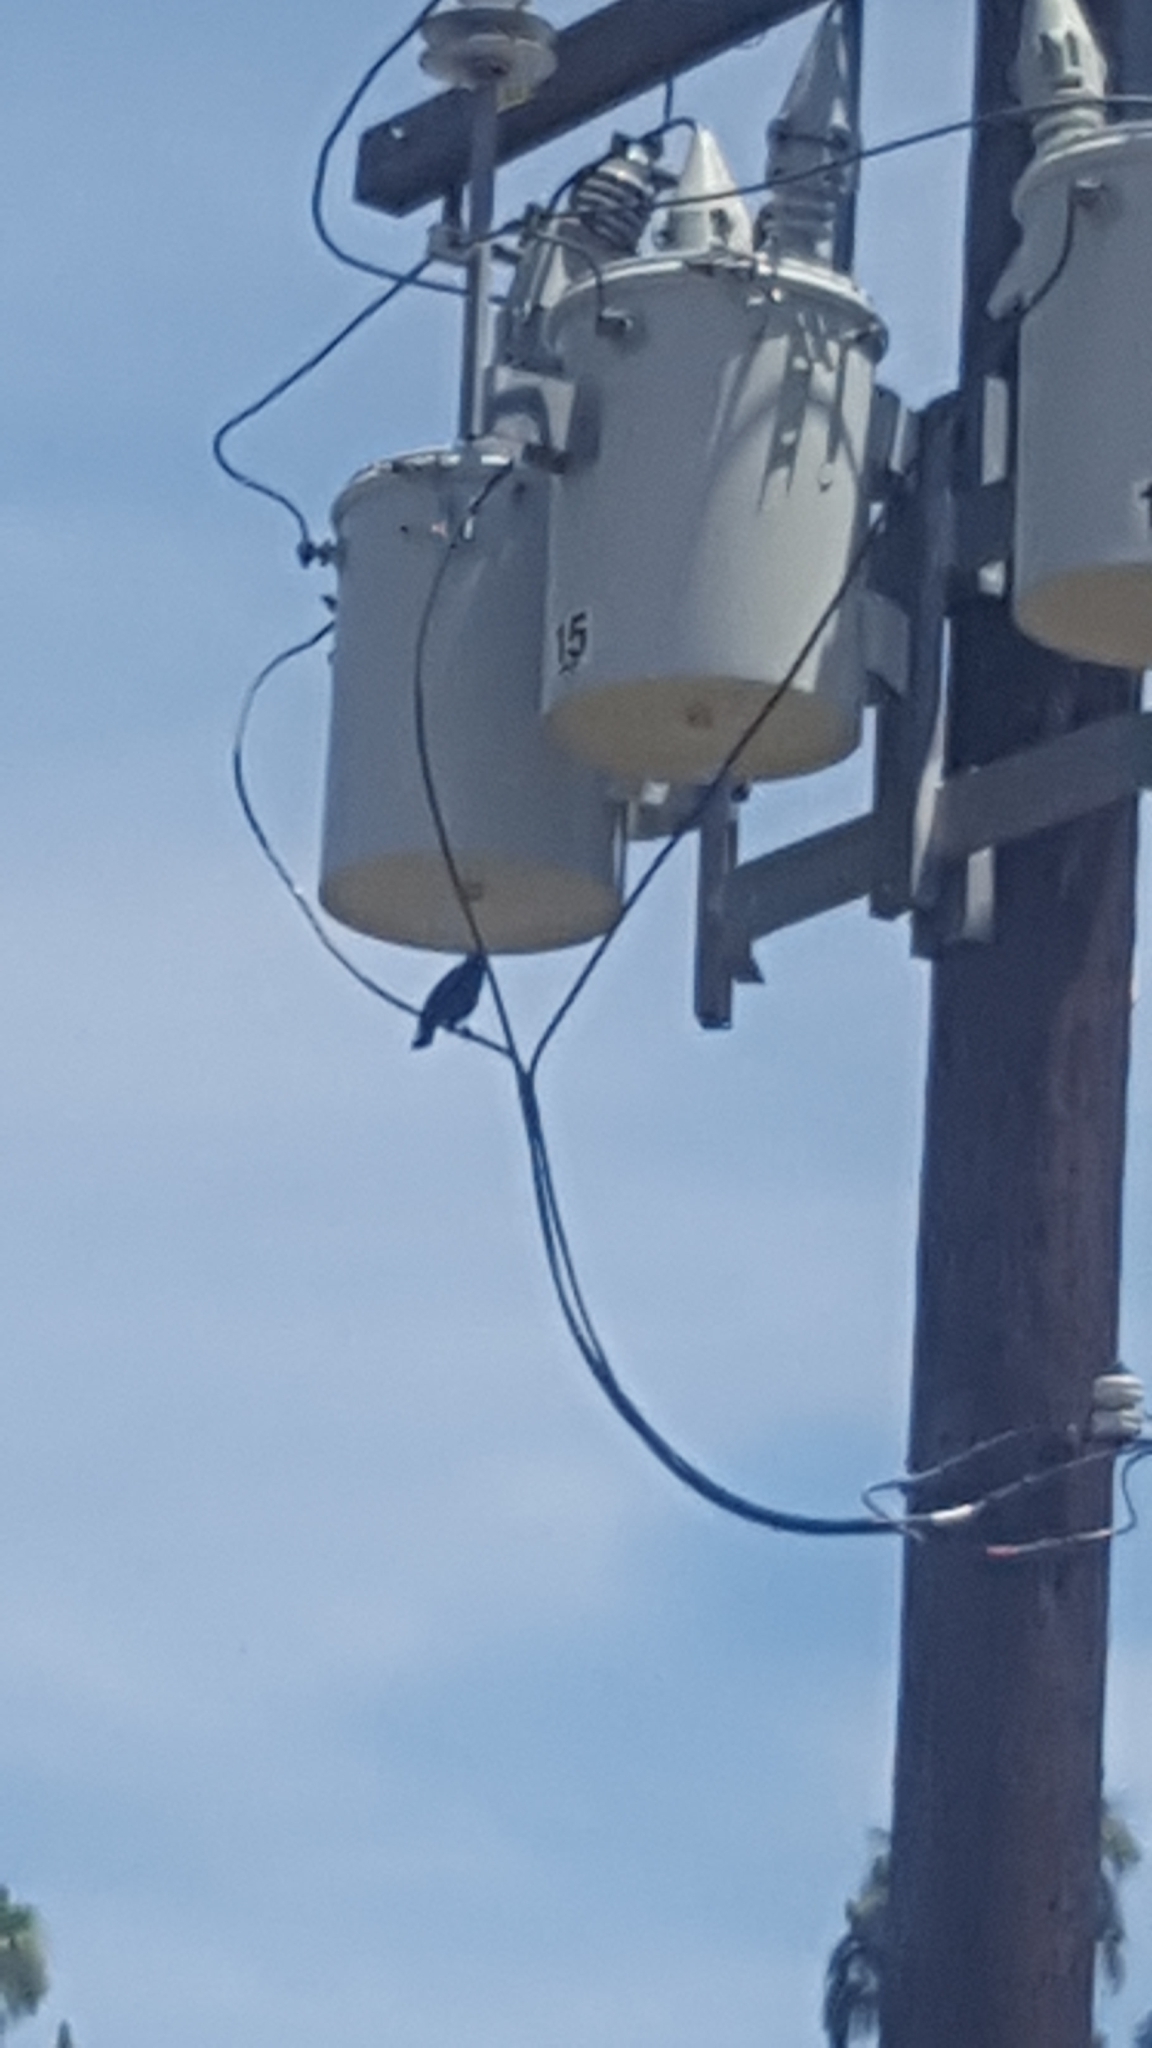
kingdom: Animalia
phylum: Chordata
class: Aves
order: Passeriformes
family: Icteridae
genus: Agelaius
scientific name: Agelaius phoeniceus
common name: Red-winged blackbird
